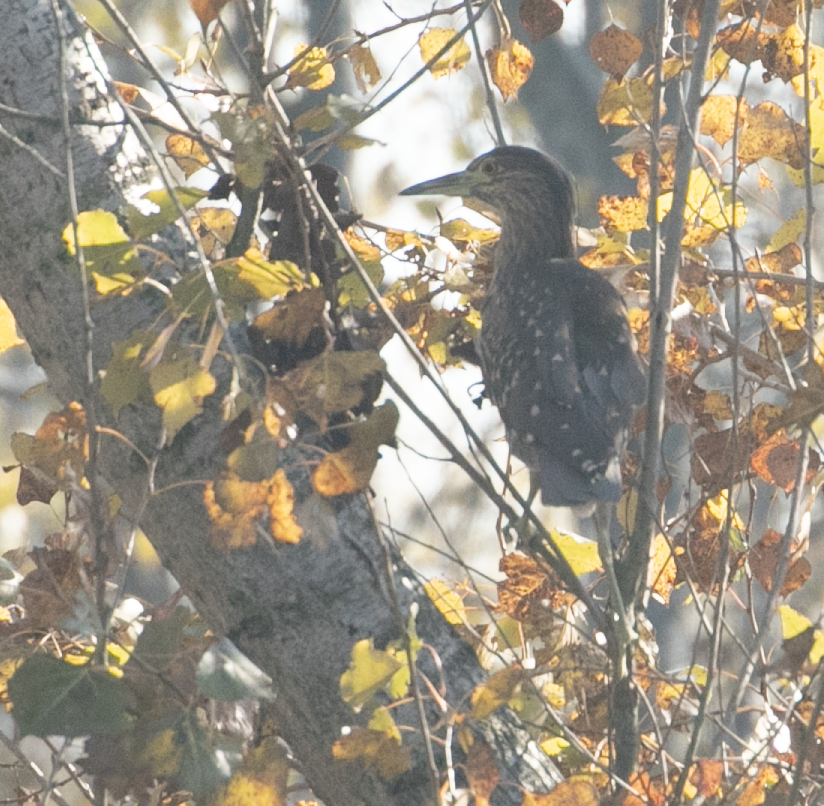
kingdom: Animalia
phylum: Chordata
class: Aves
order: Pelecaniformes
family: Ardeidae
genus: Nycticorax
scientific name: Nycticorax nycticorax
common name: Black-crowned night heron
